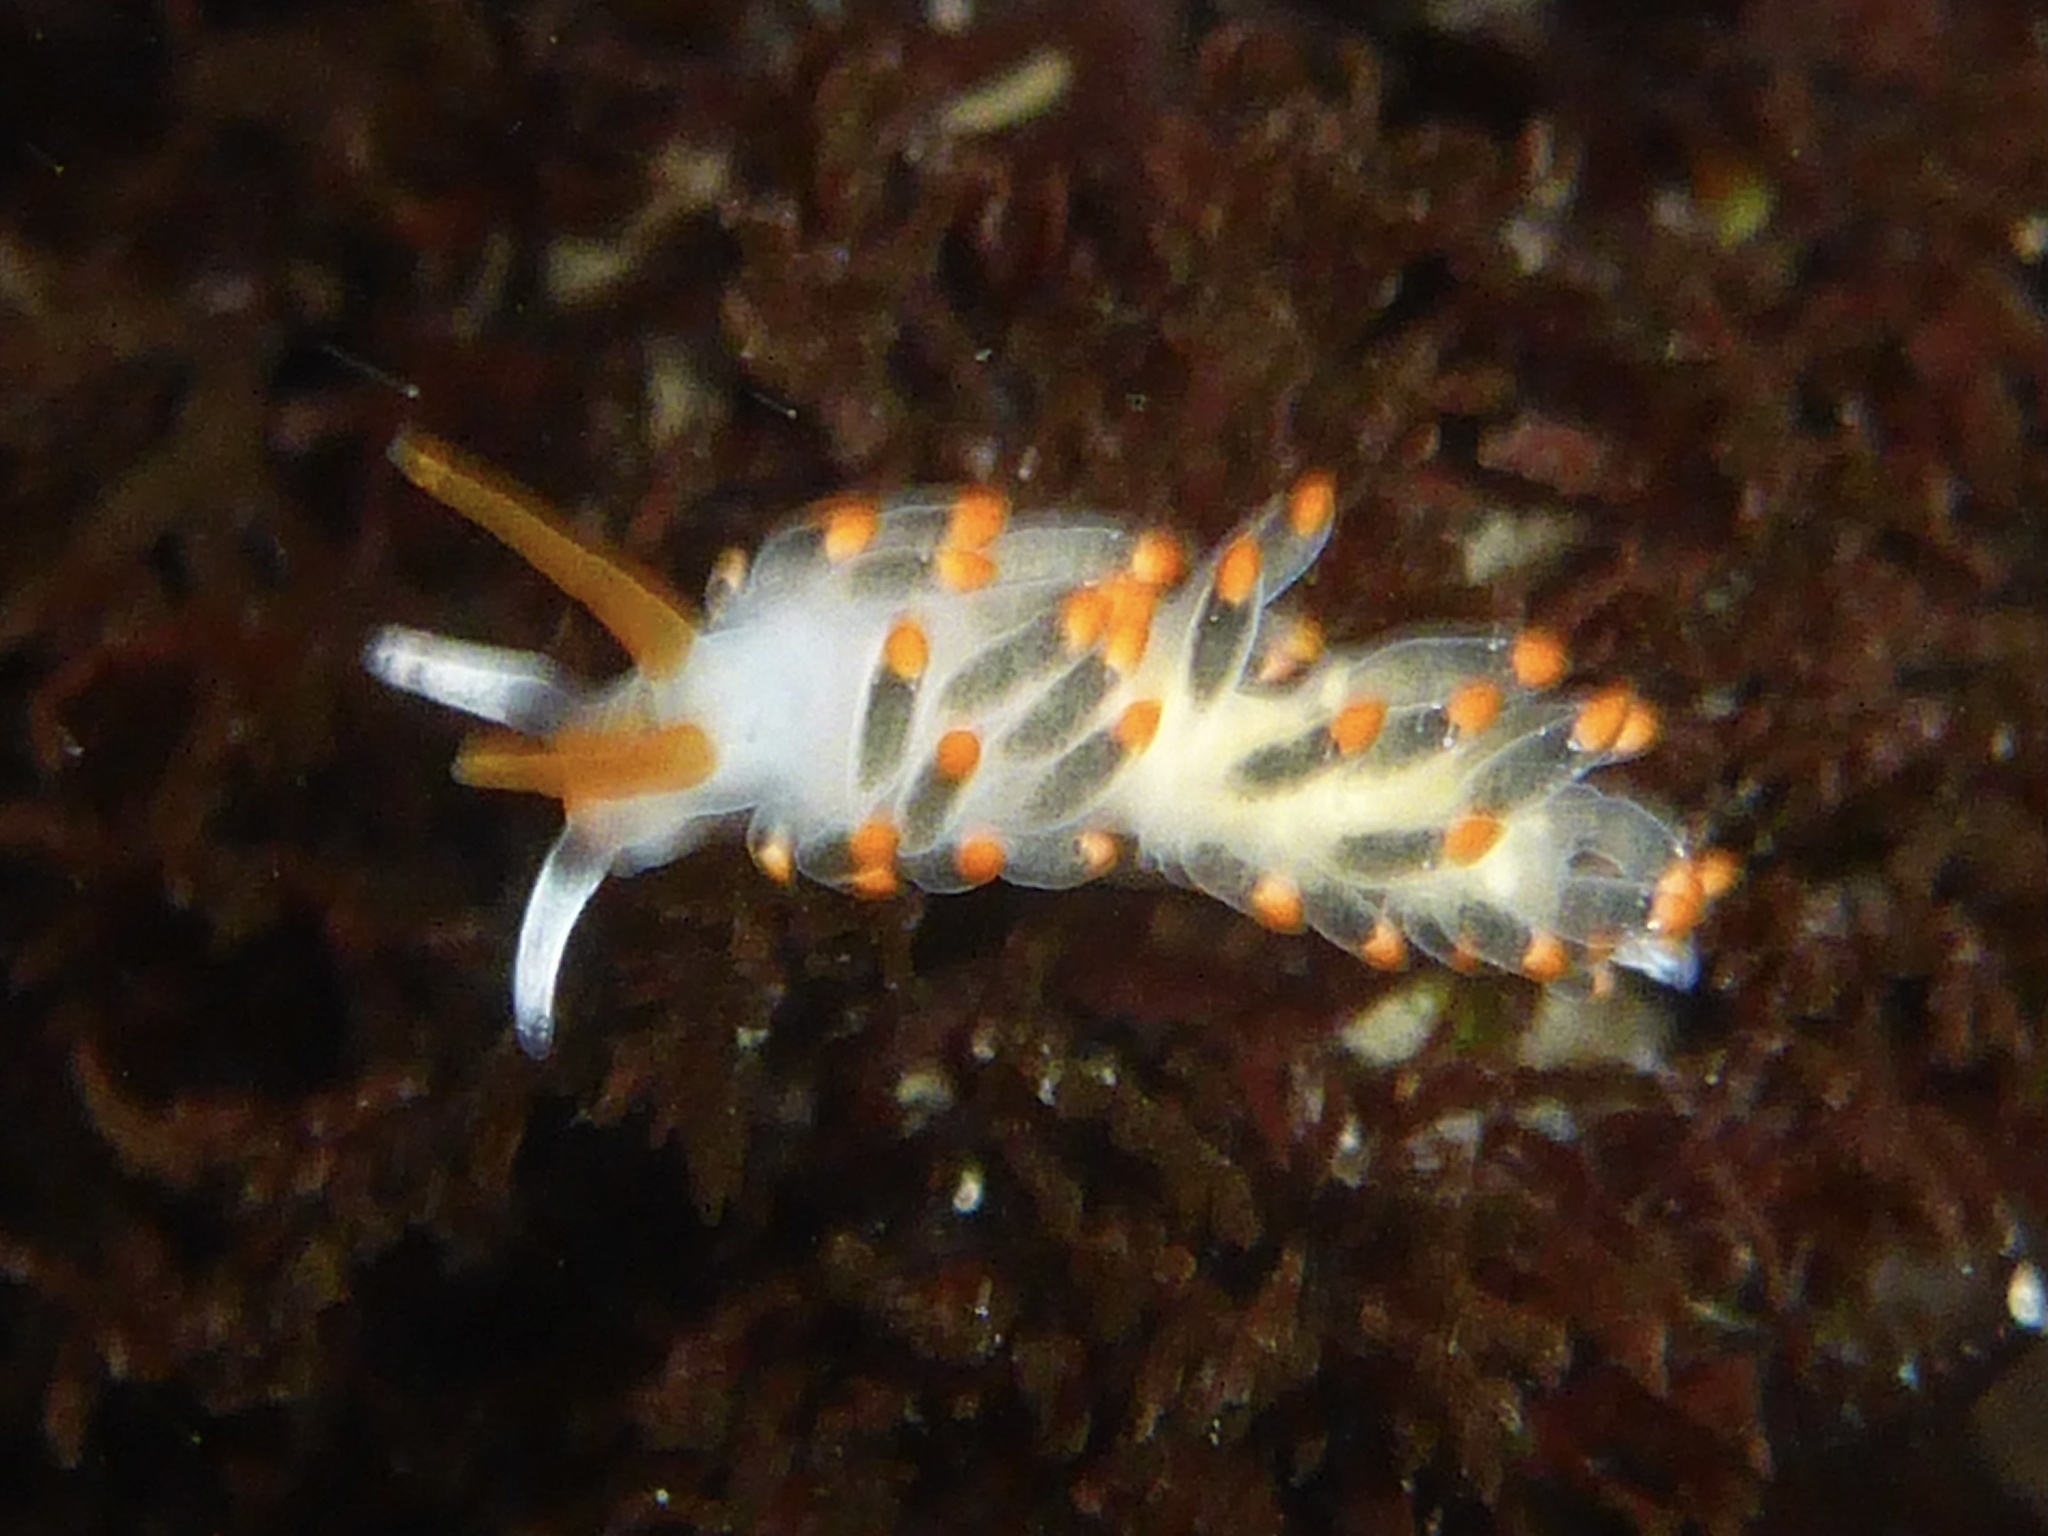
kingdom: Animalia
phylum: Mollusca
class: Gastropoda
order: Nudibranchia
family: Trinchesiidae
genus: Diaphoreolis
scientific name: Diaphoreolis lagunae
